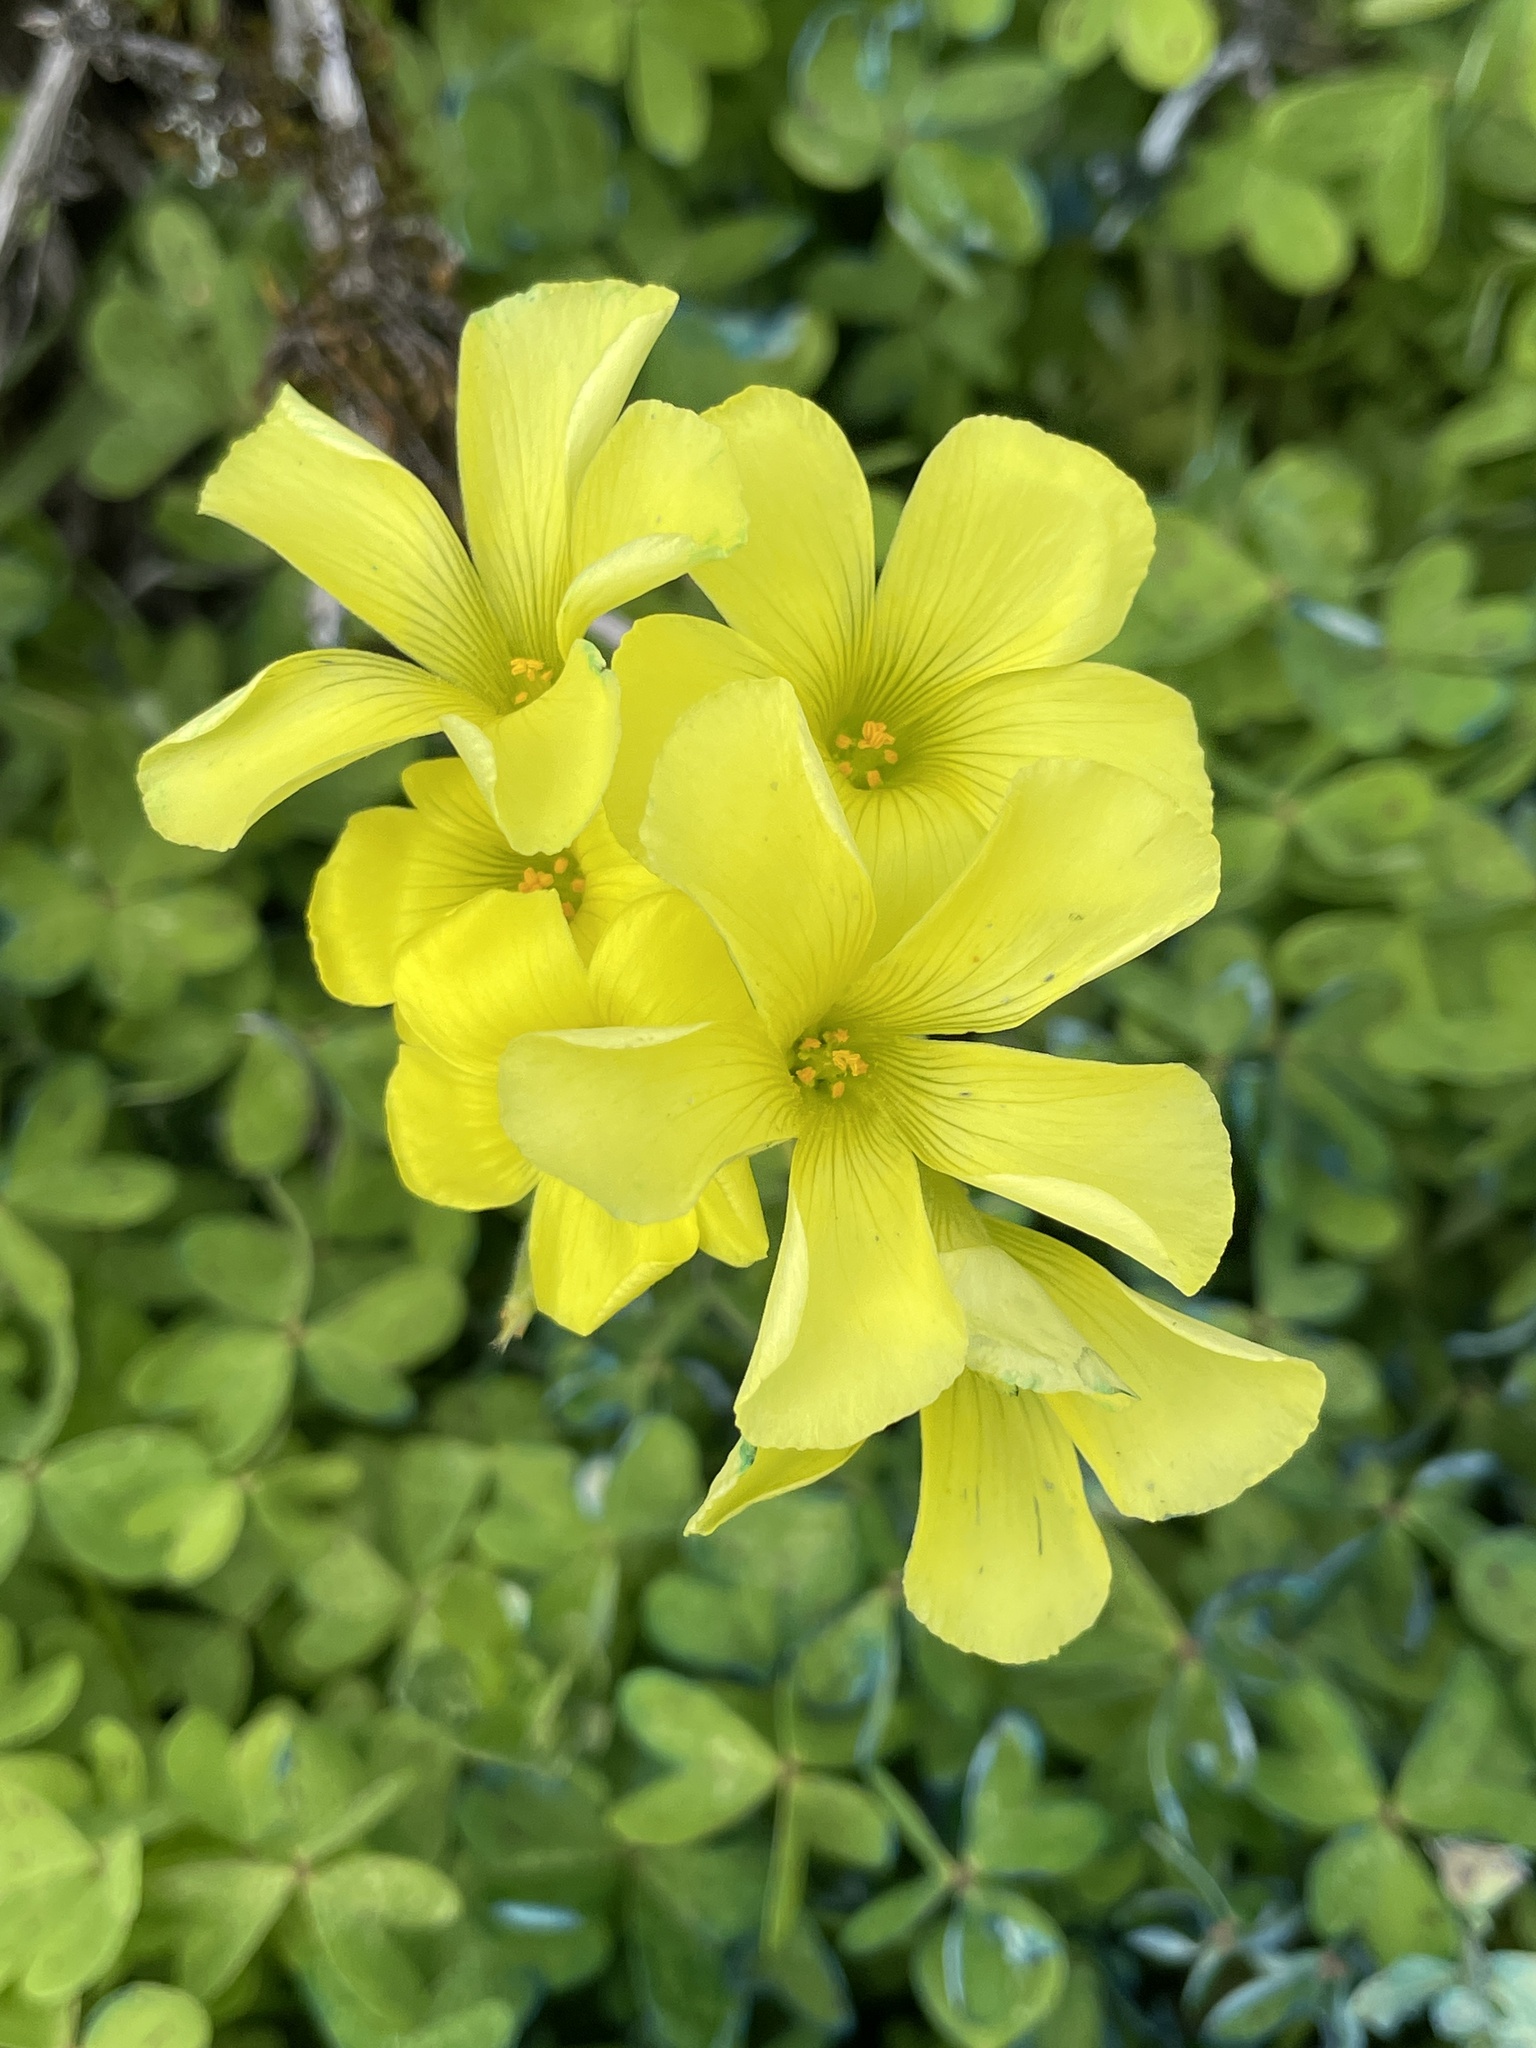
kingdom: Plantae
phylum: Tracheophyta
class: Magnoliopsida
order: Oxalidales
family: Oxalidaceae
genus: Oxalis
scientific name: Oxalis pes-caprae
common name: Bermuda-buttercup
